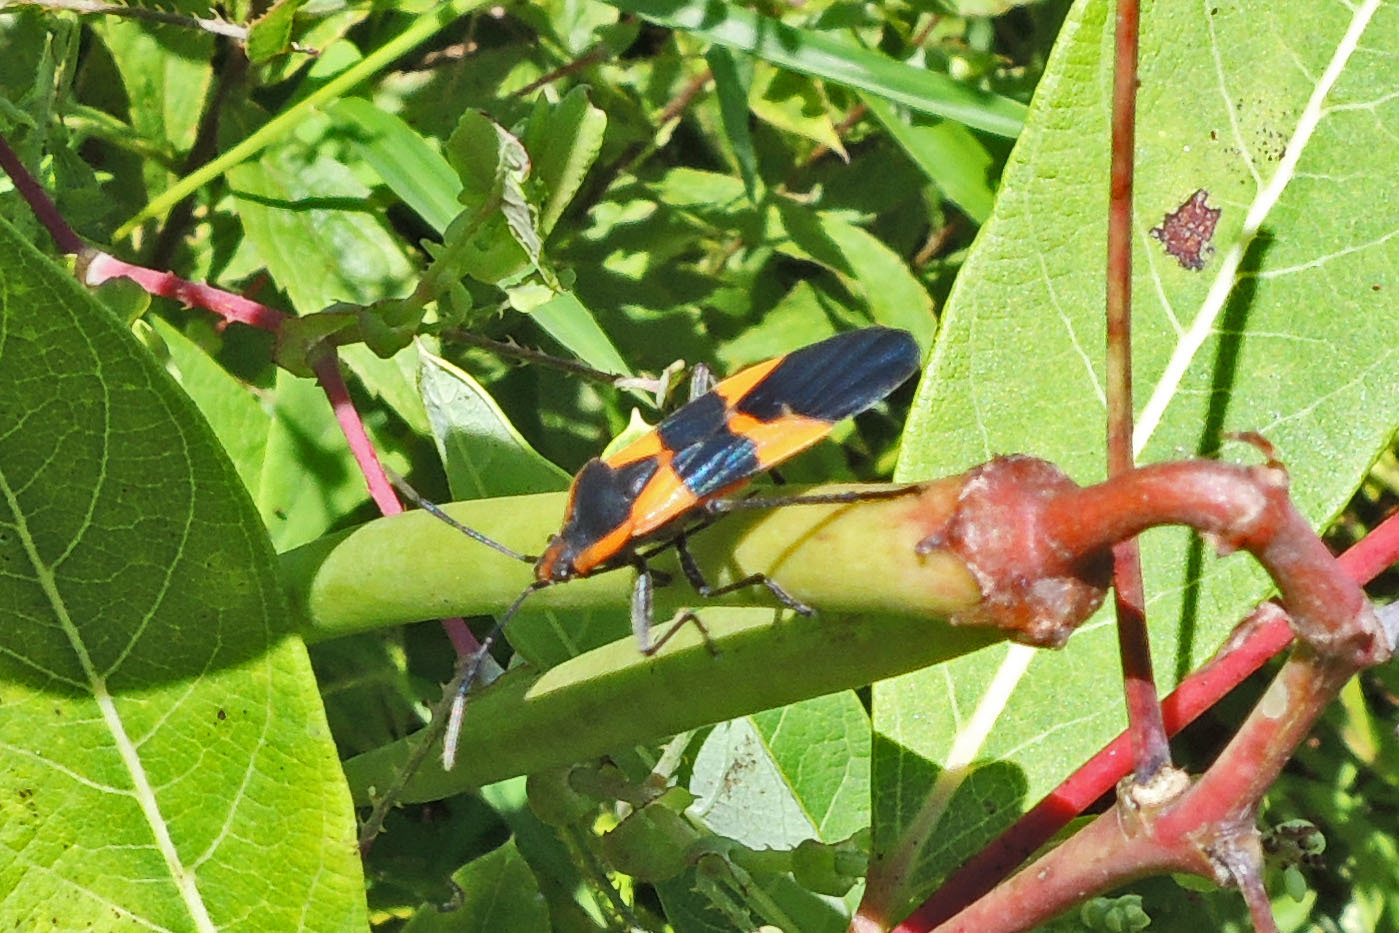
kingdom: Animalia
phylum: Arthropoda
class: Insecta
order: Hemiptera
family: Lygaeidae
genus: Oncopeltus
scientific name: Oncopeltus fasciatus
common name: Large milkweed bug
